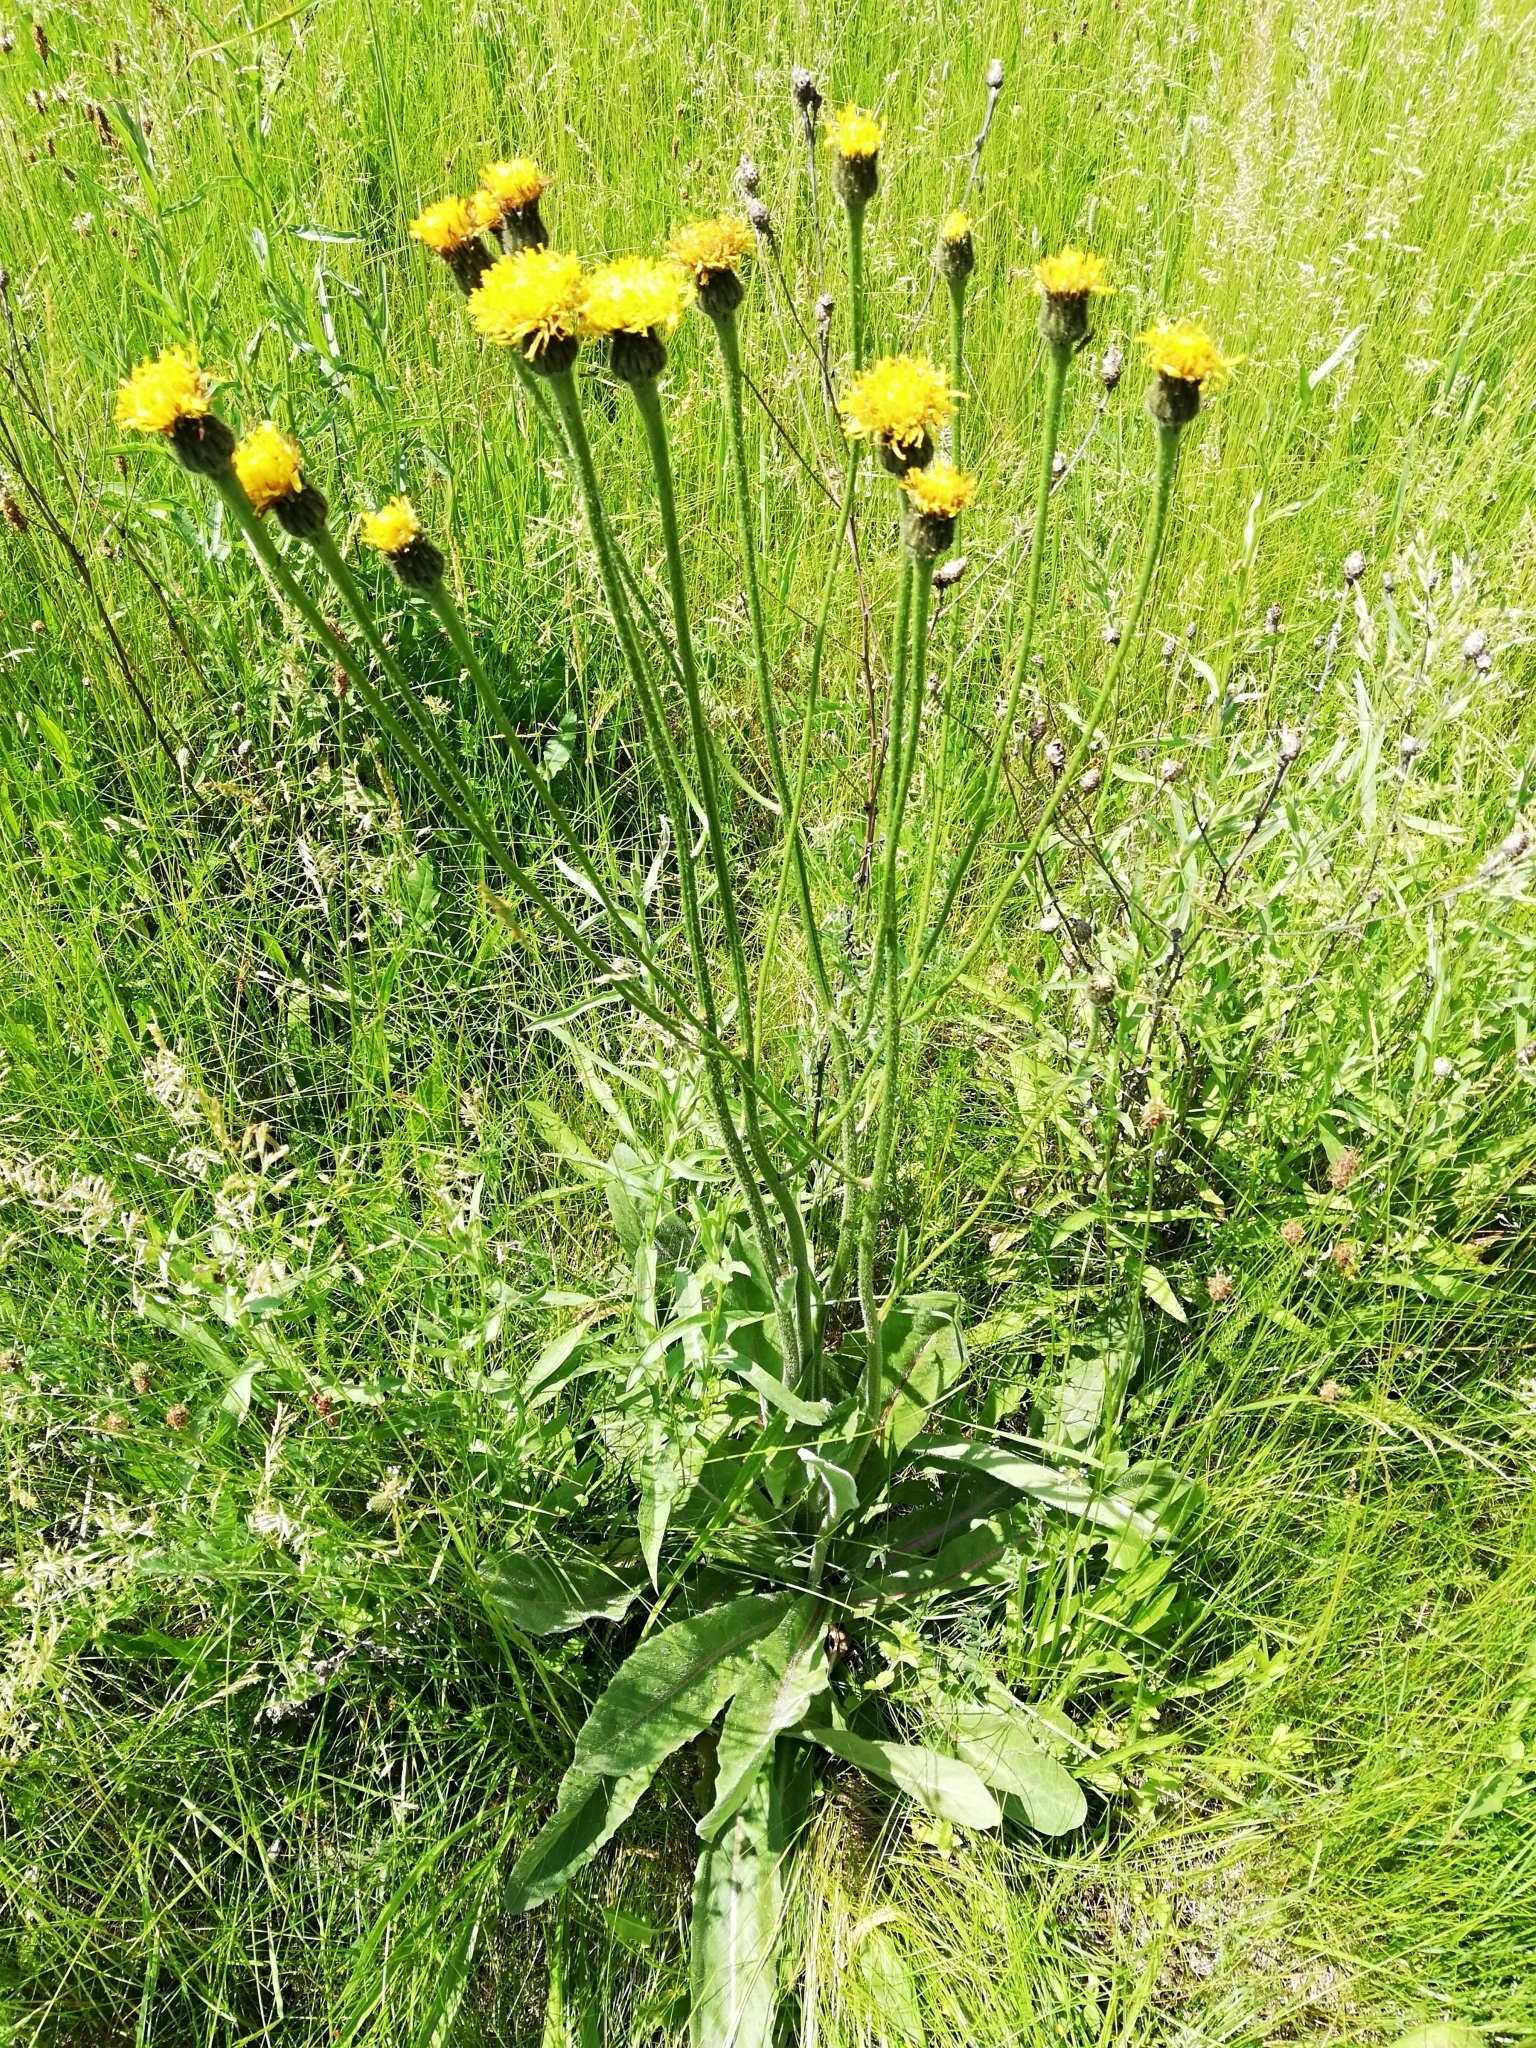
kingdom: Plantae
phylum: Tracheophyta
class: Magnoliopsida
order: Asterales
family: Asteraceae
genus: Trommsdorffia
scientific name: Trommsdorffia maculata
